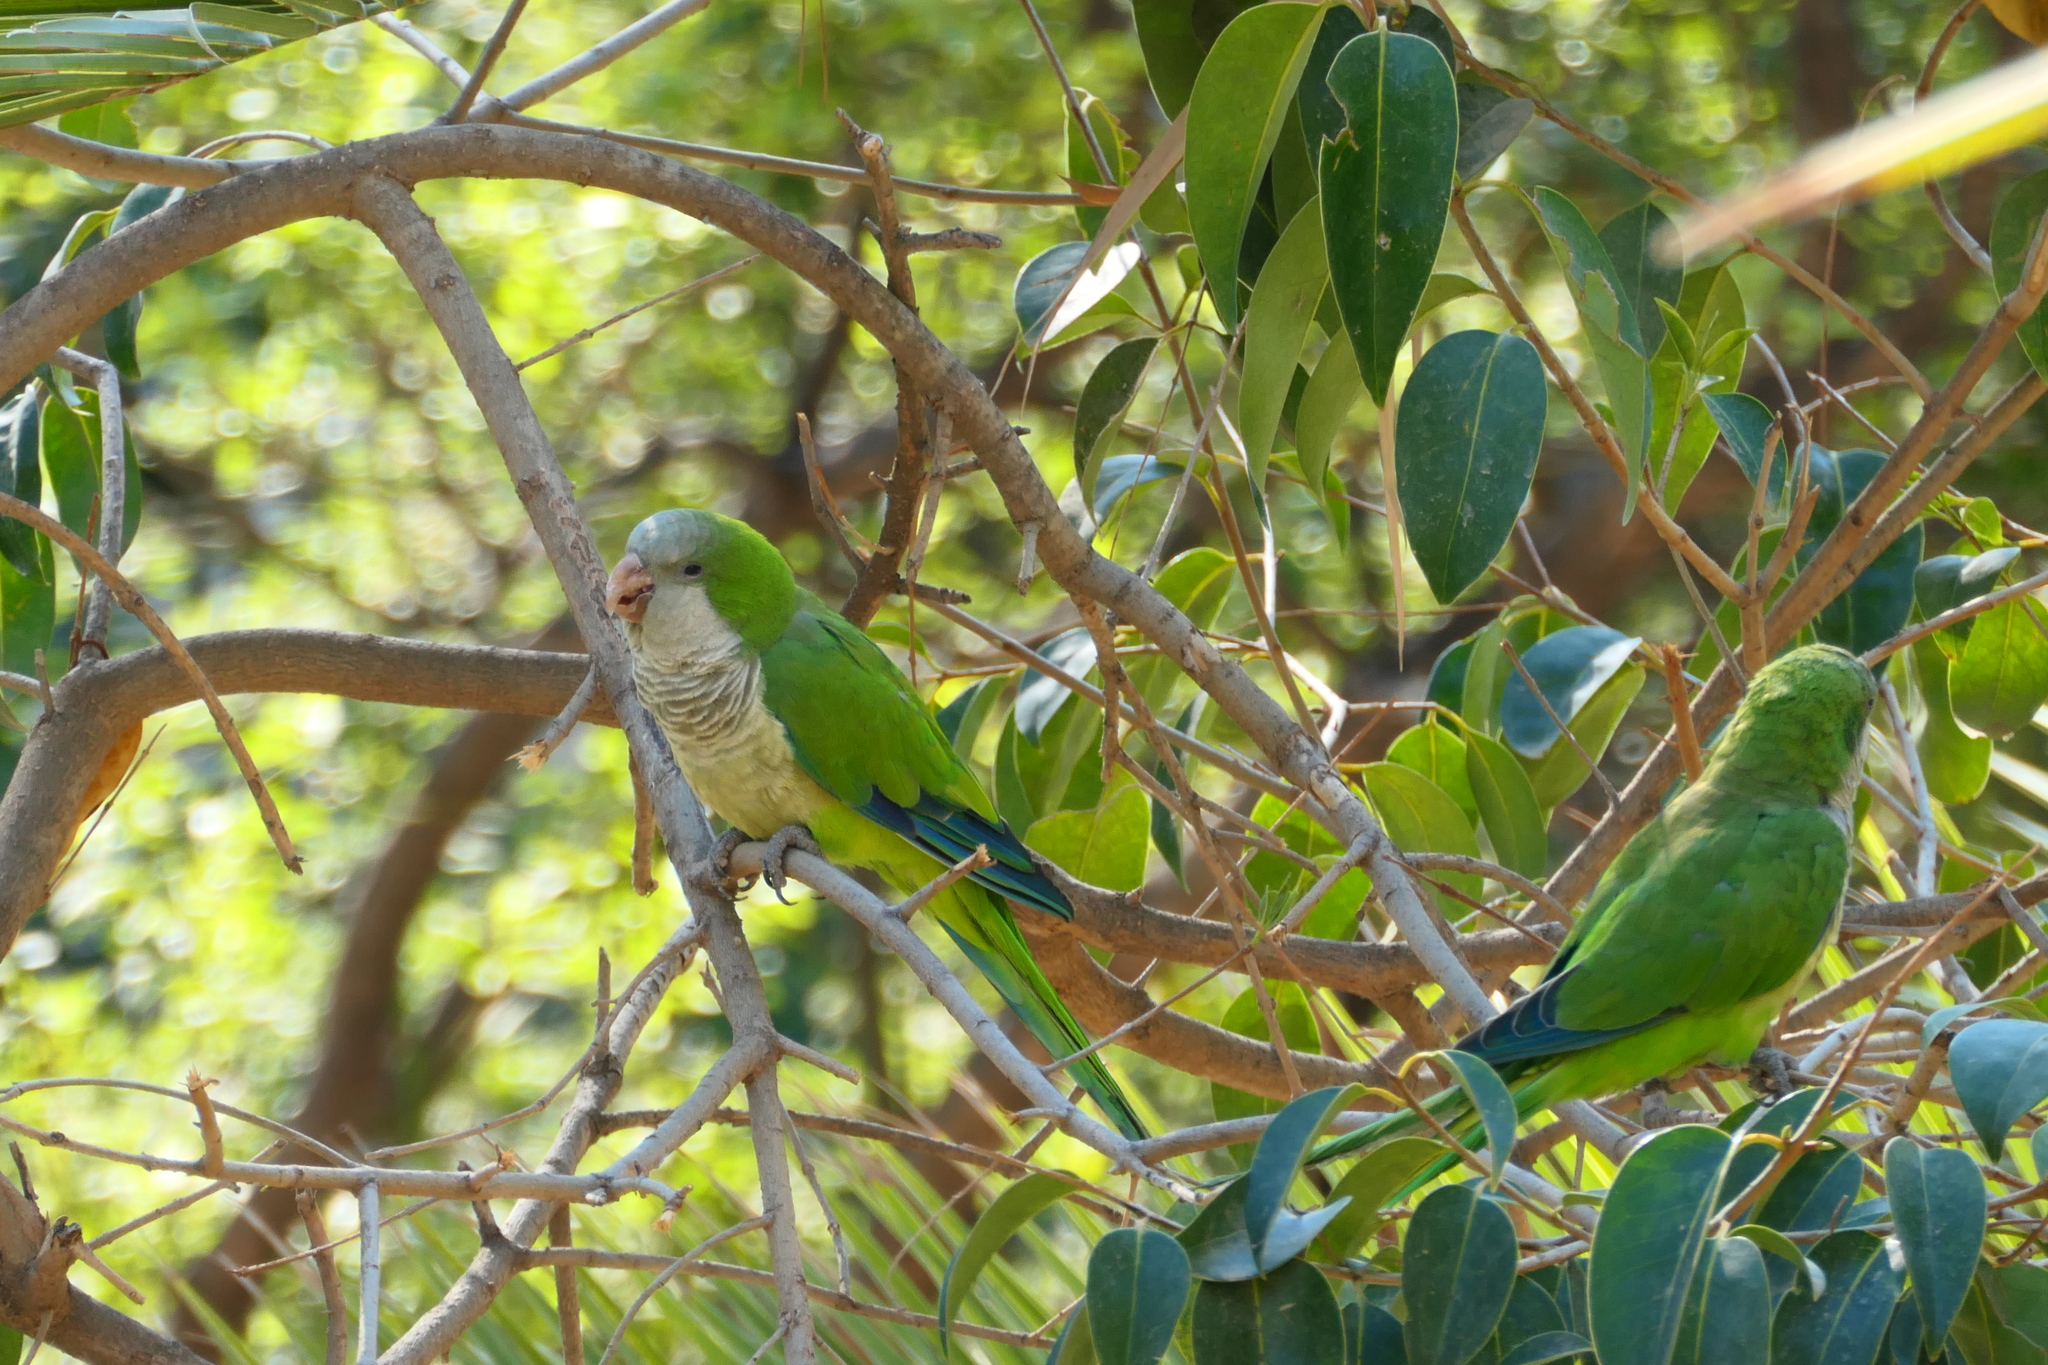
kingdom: Animalia
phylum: Chordata
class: Aves
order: Psittaciformes
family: Psittacidae
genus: Myiopsitta
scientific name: Myiopsitta monachus
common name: Monk parakeet
